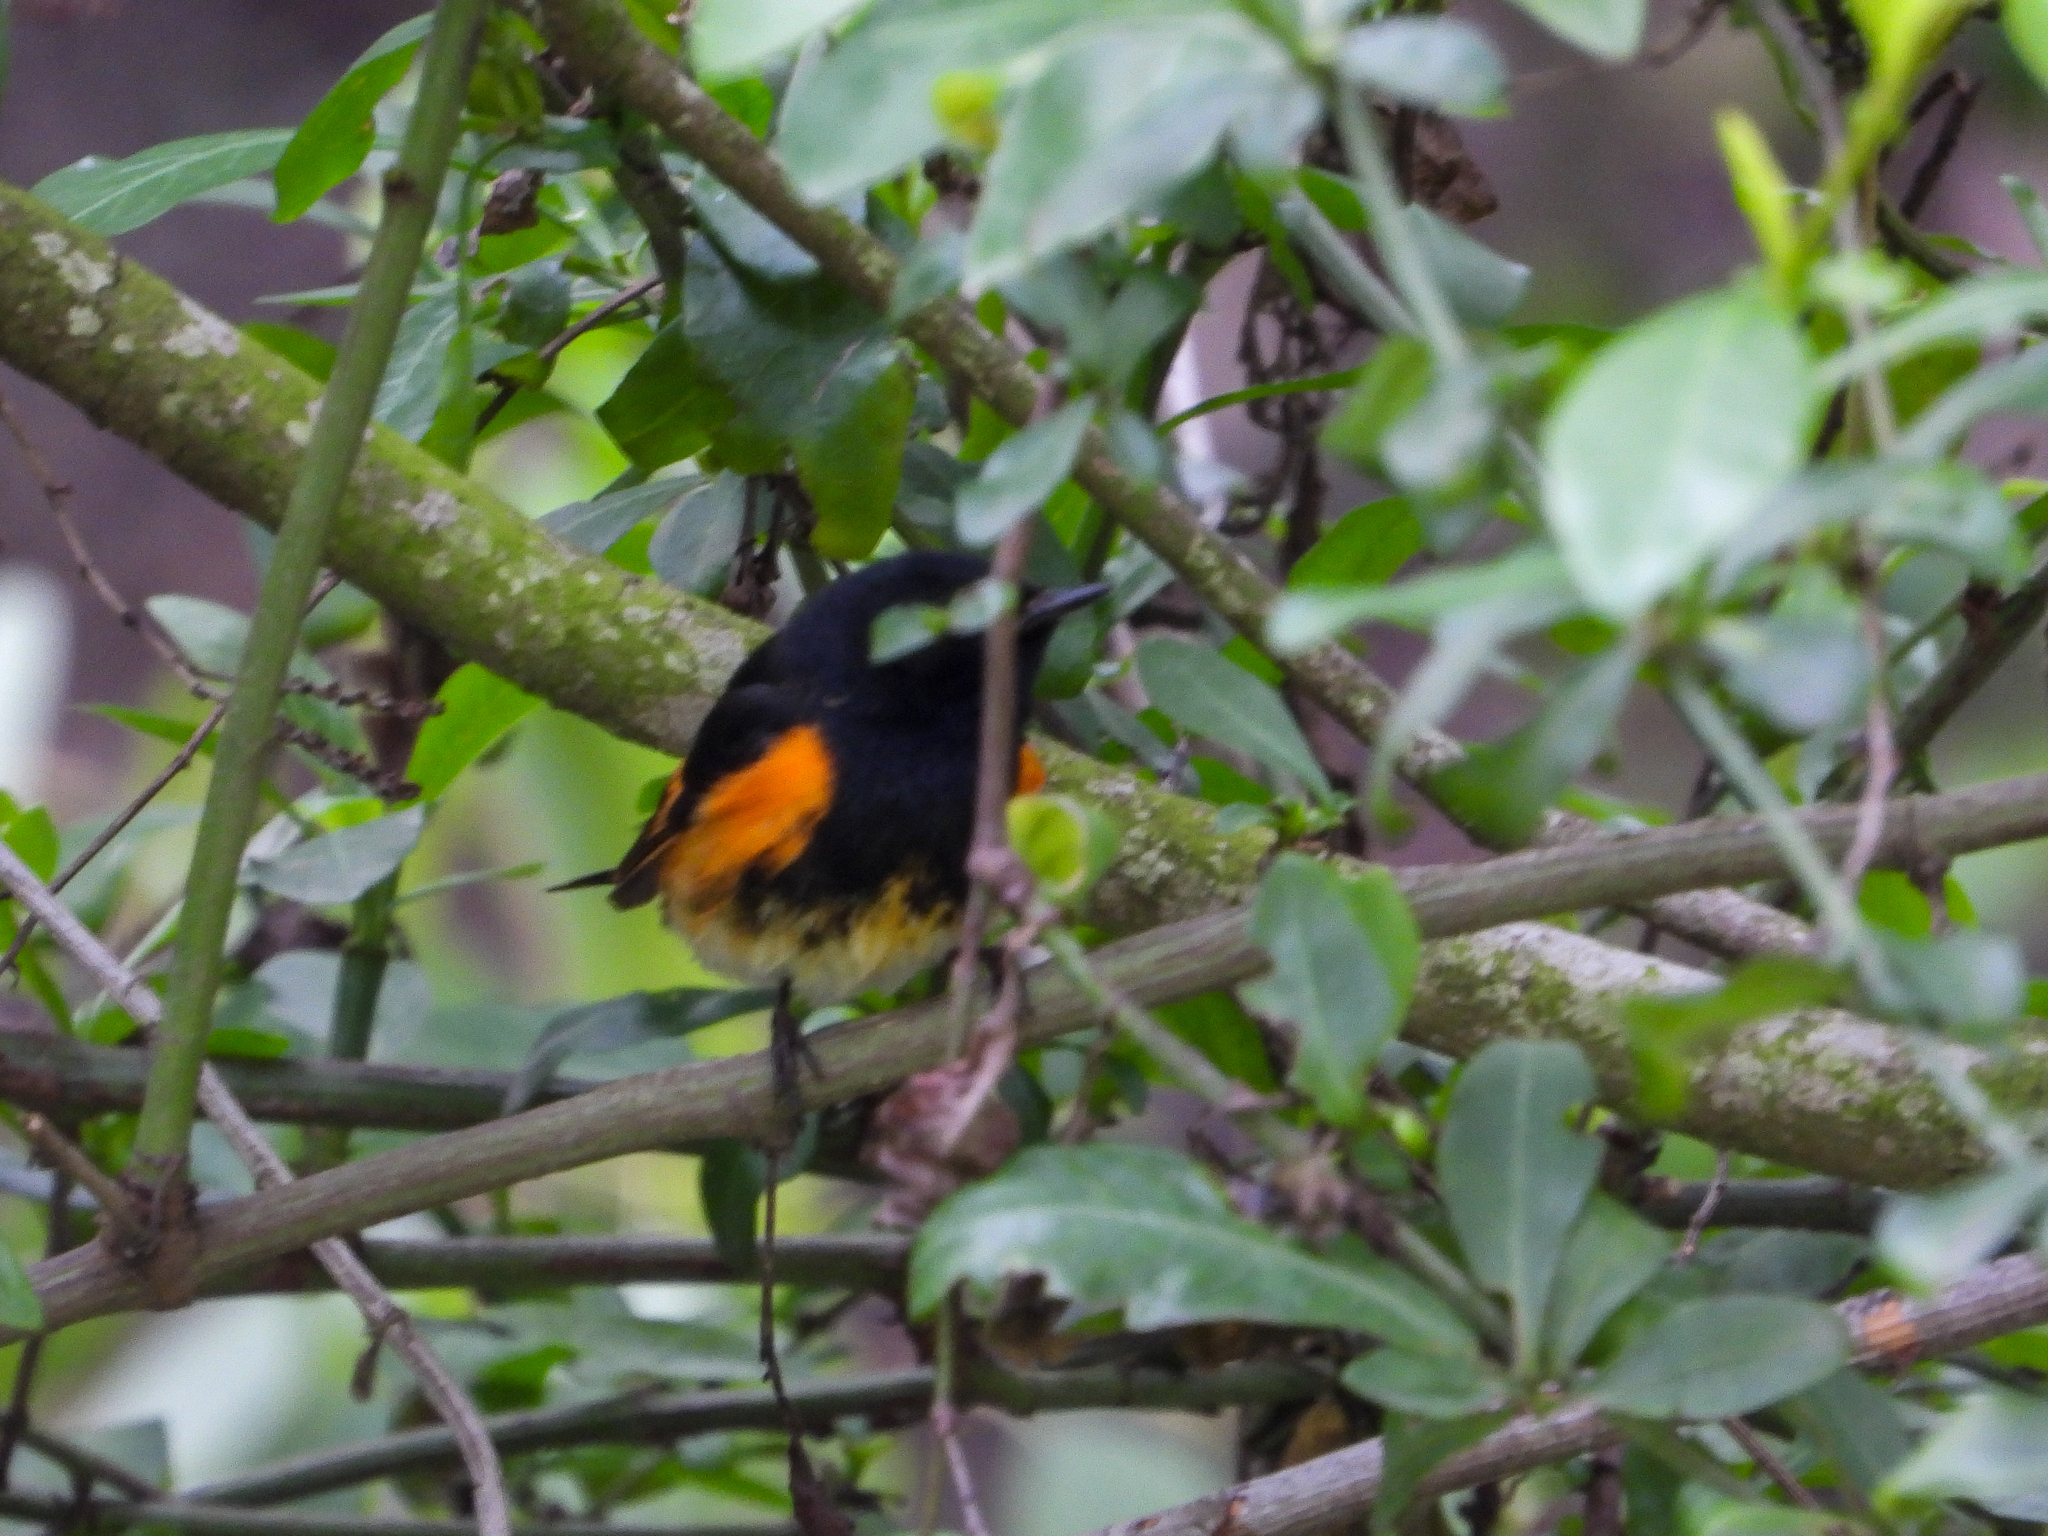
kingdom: Animalia
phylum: Chordata
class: Aves
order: Passeriformes
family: Parulidae
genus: Setophaga
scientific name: Setophaga ruticilla
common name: American redstart
